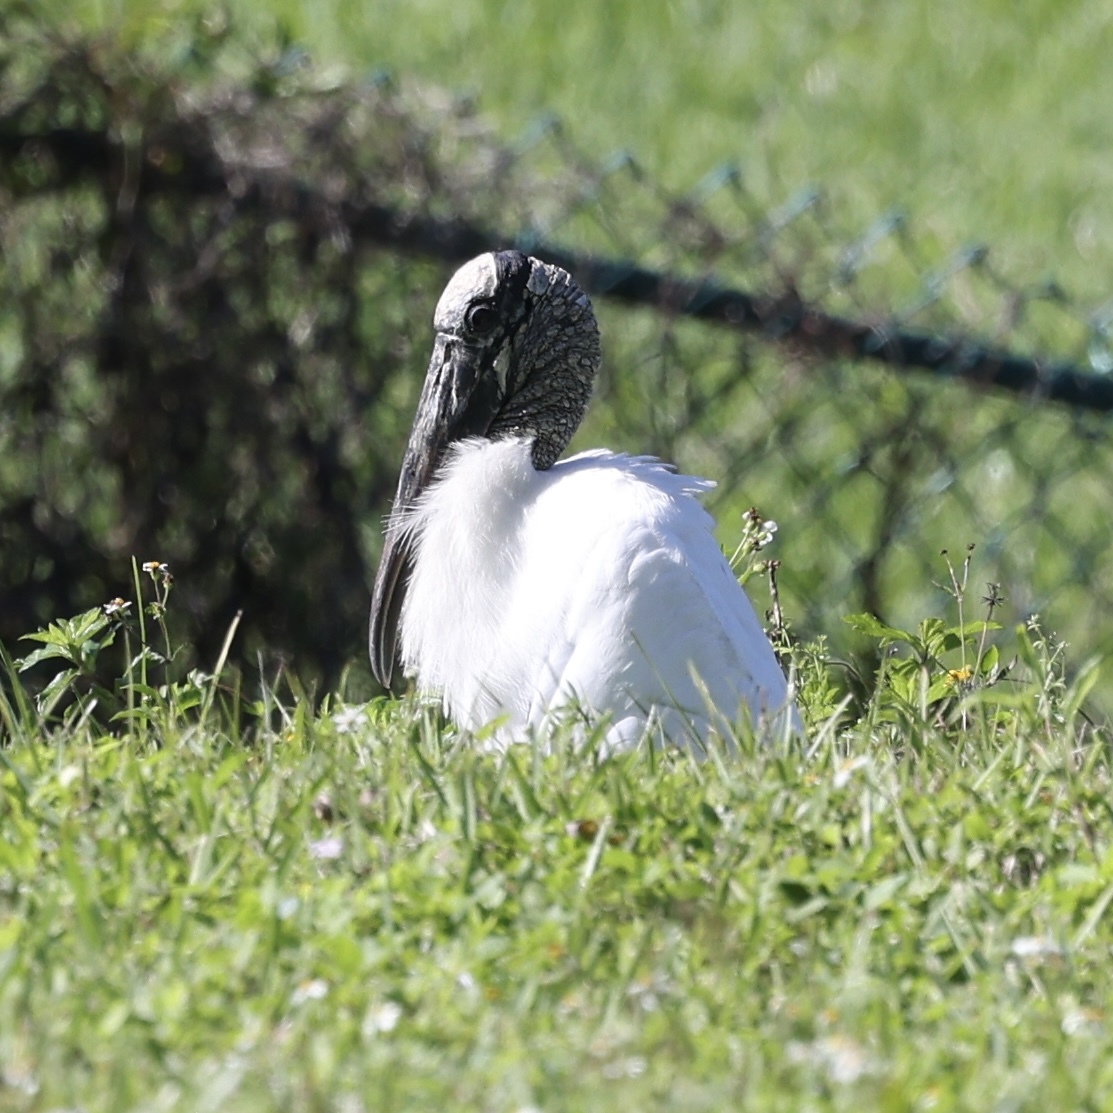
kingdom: Animalia
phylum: Chordata
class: Aves
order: Ciconiiformes
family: Ciconiidae
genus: Mycteria
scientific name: Mycteria americana
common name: Wood stork
